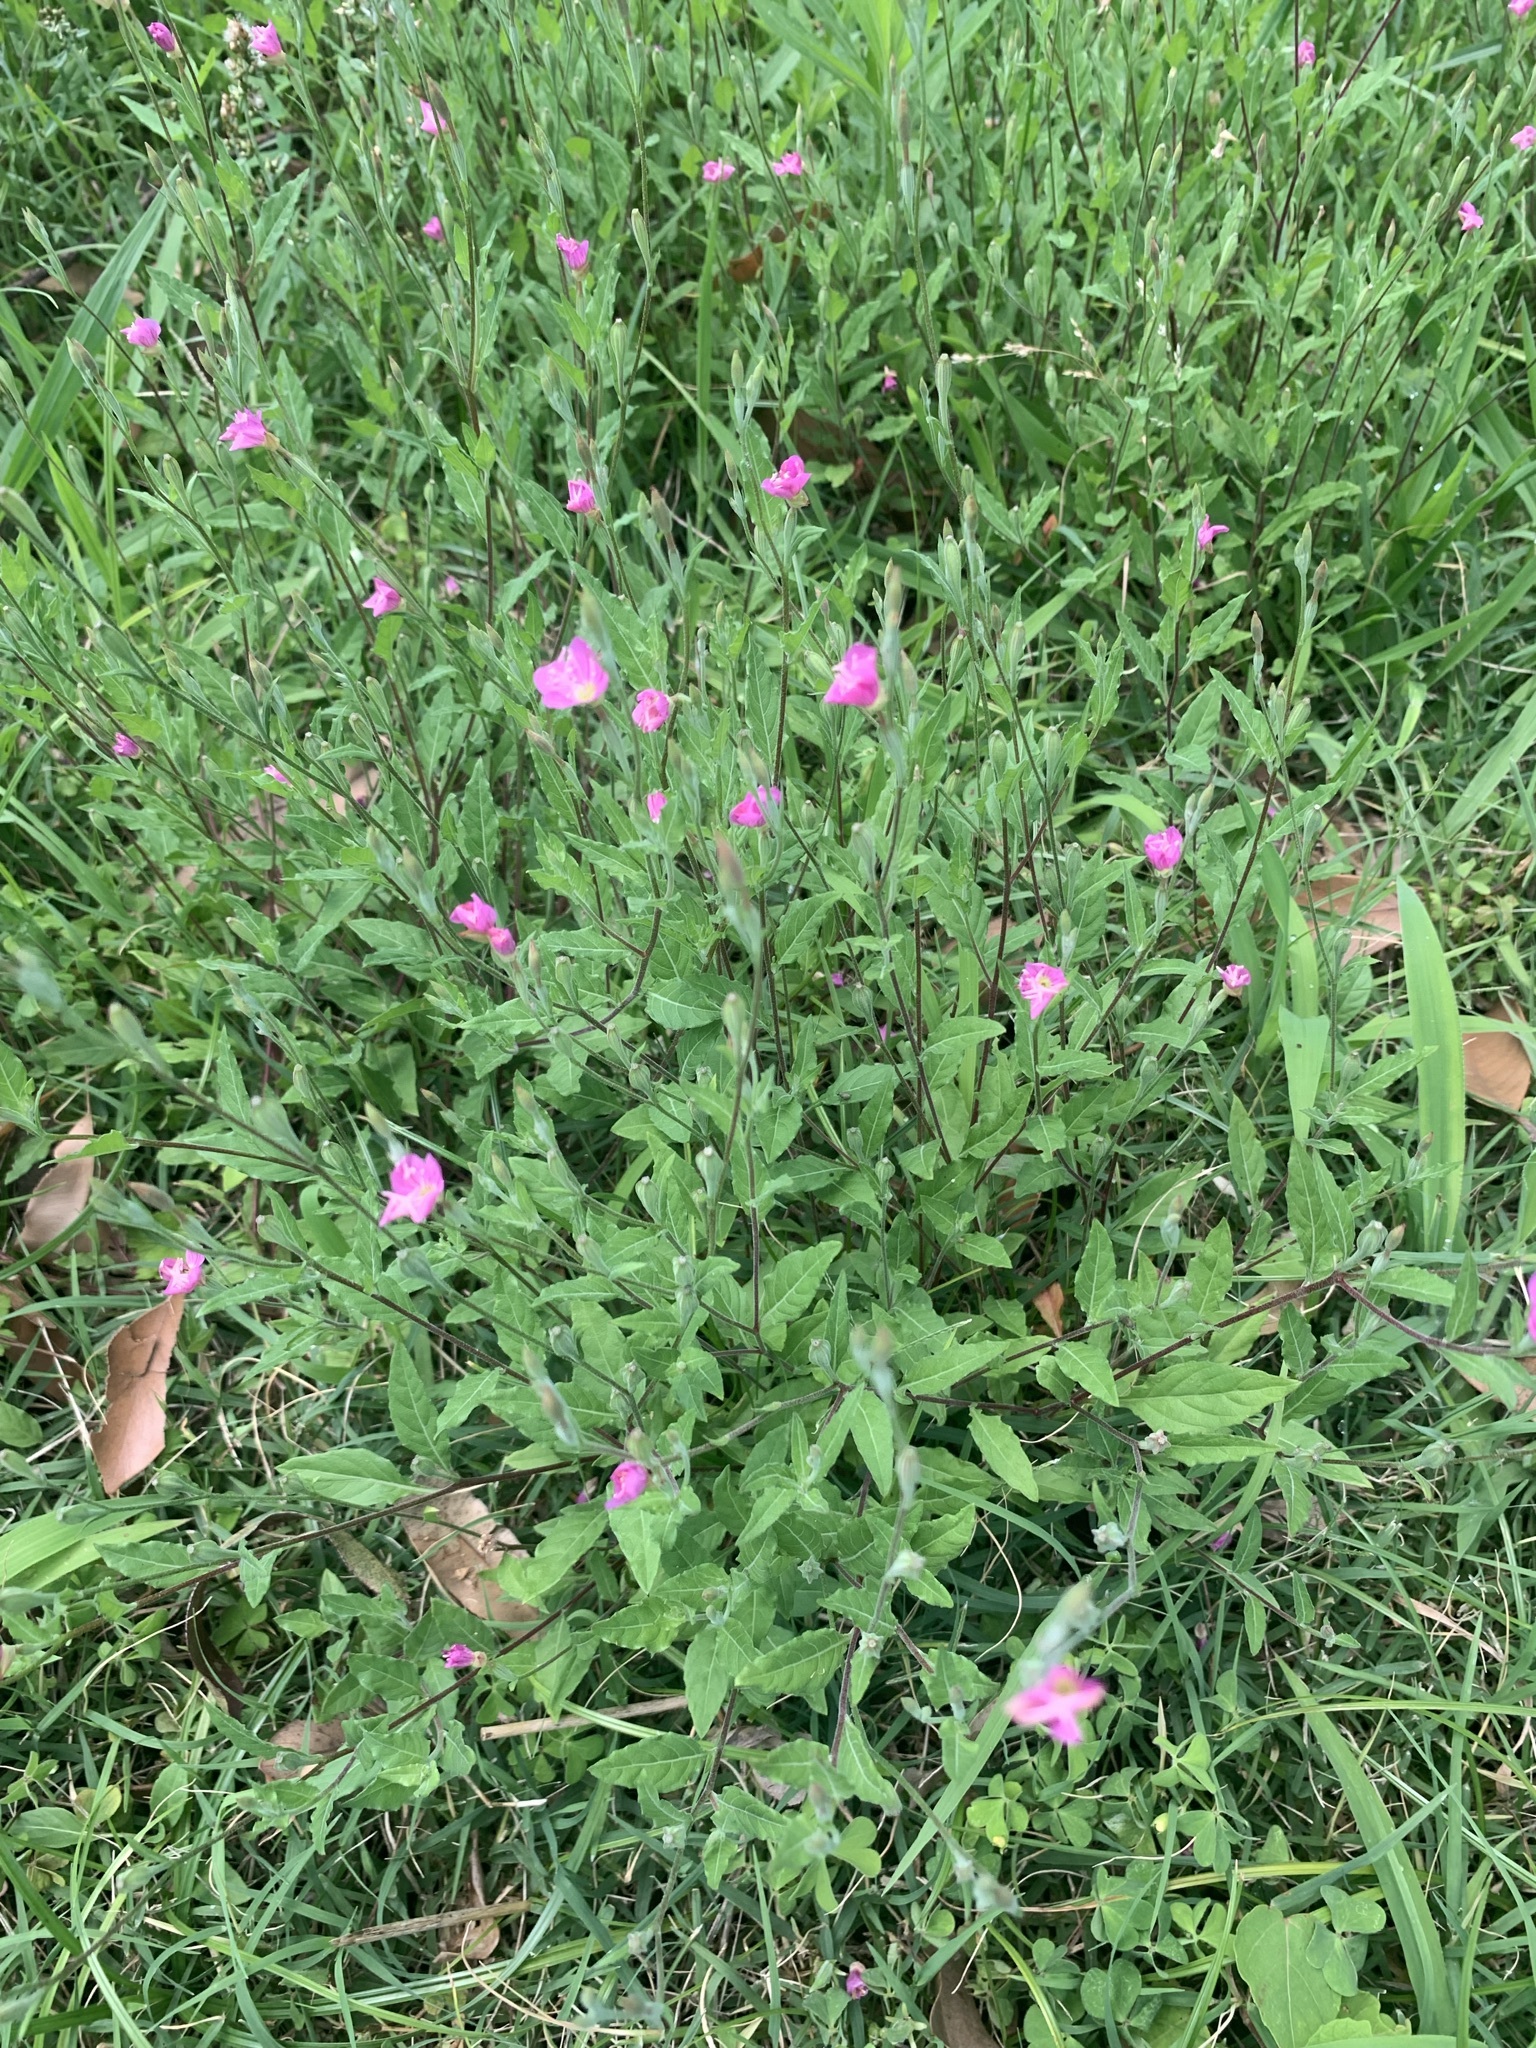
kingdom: Plantae
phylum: Tracheophyta
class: Magnoliopsida
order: Myrtales
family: Onagraceae
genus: Oenothera
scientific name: Oenothera rosea
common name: Rosy evening-primrose
